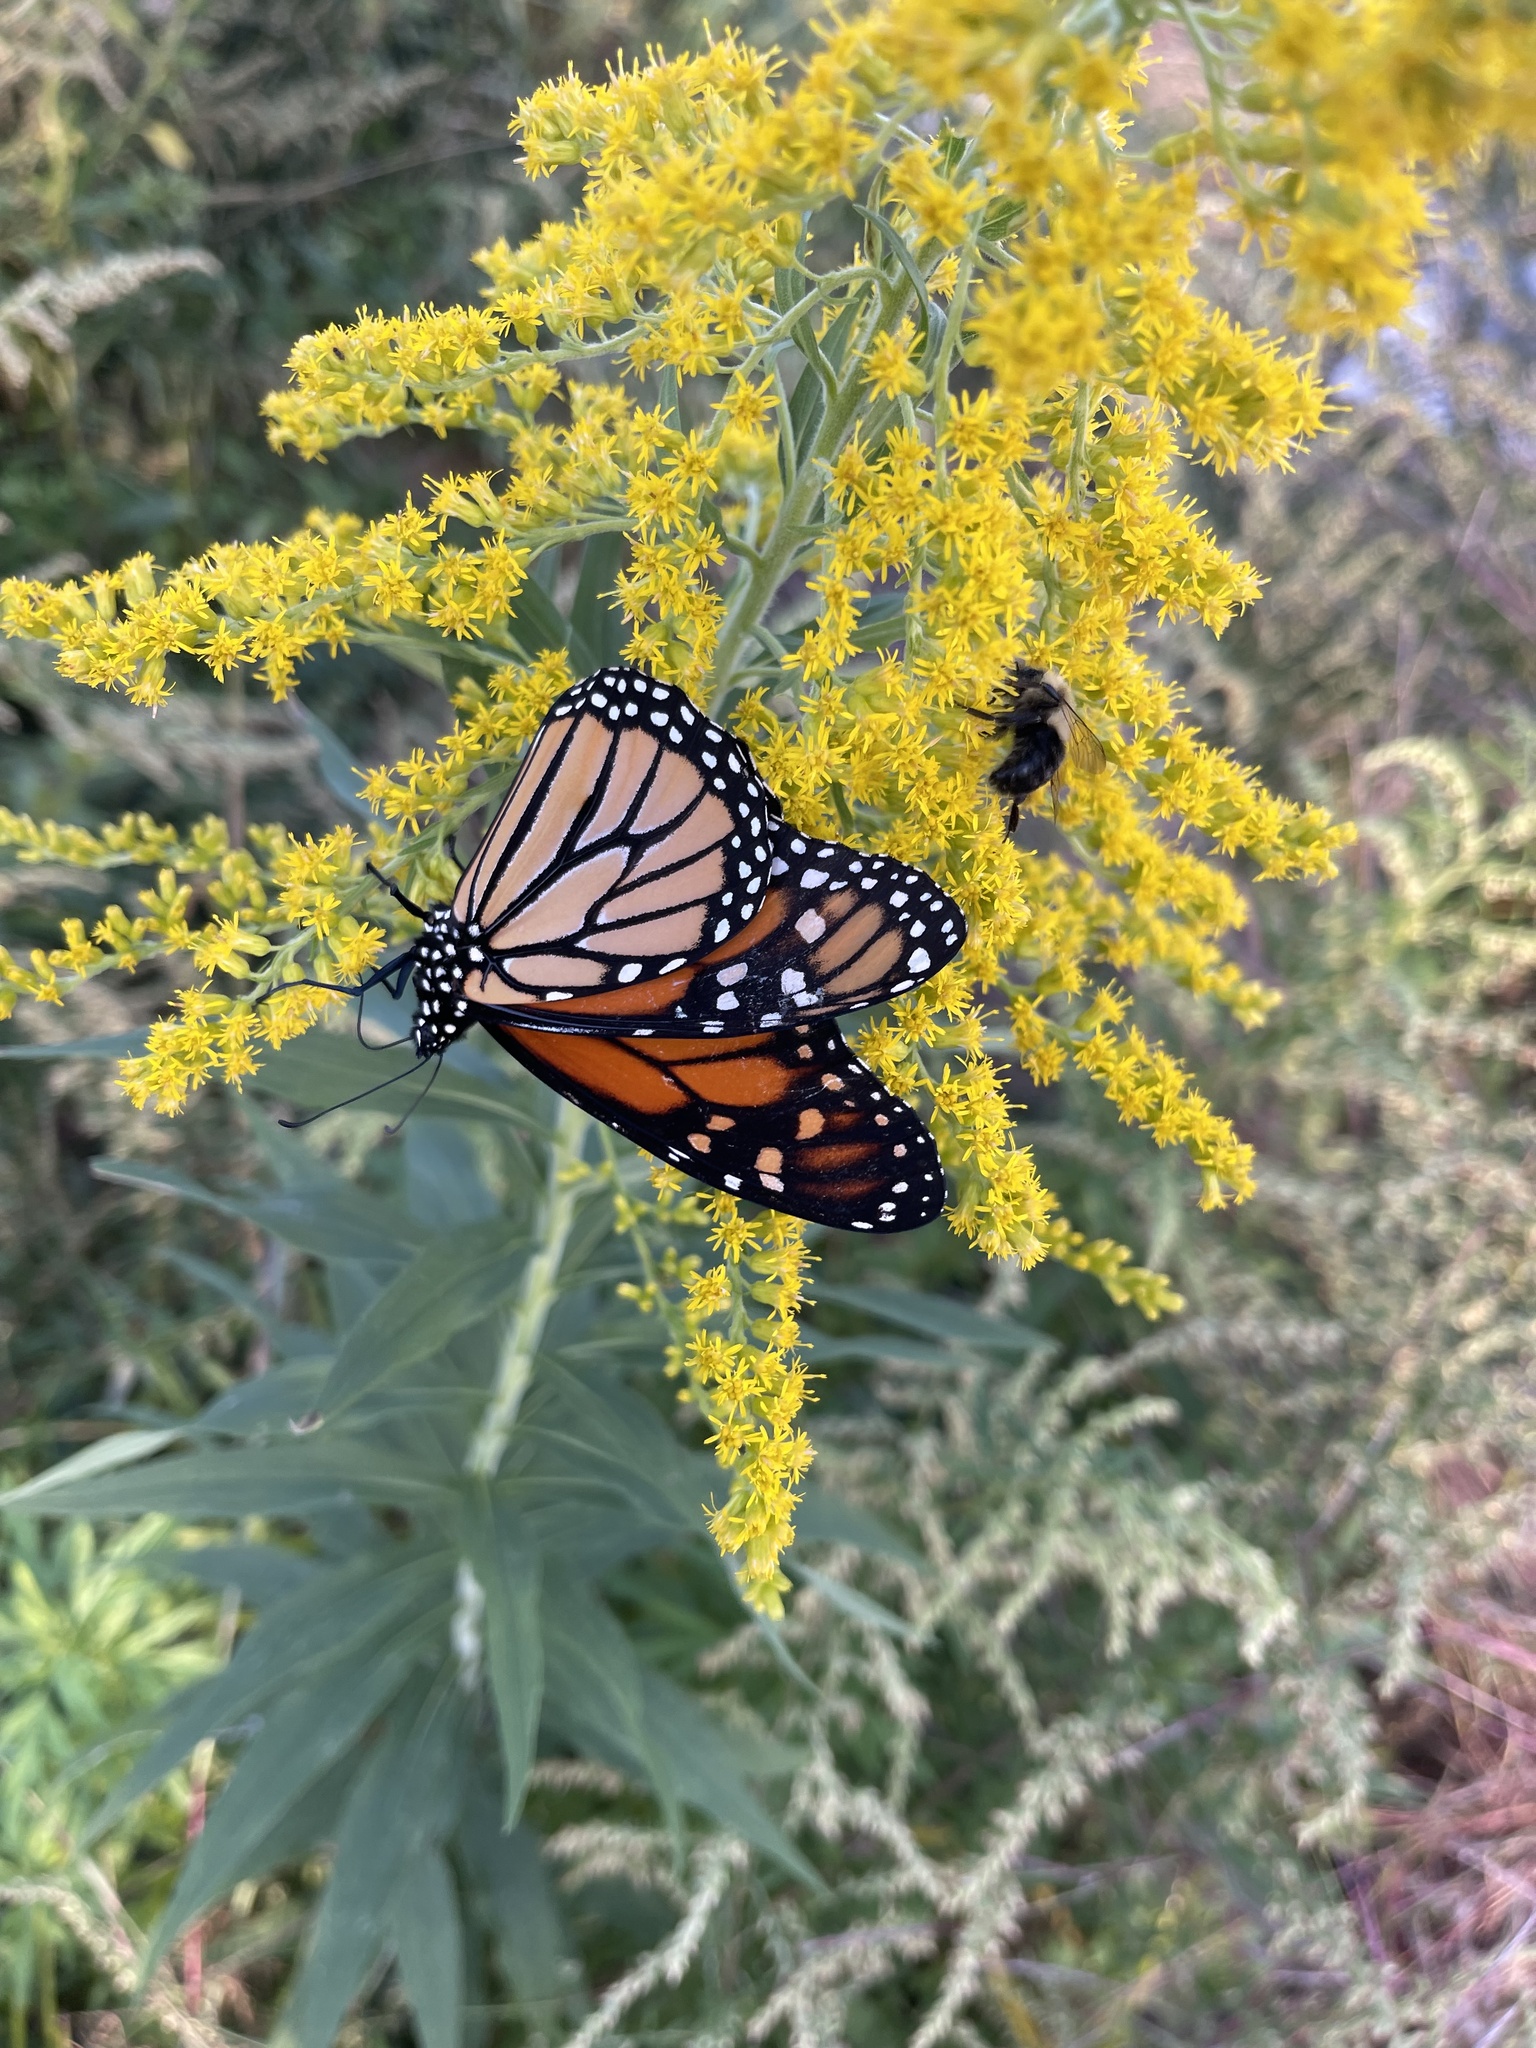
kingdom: Animalia
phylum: Arthropoda
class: Insecta
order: Lepidoptera
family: Nymphalidae
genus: Danaus
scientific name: Danaus plexippus
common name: Monarch
